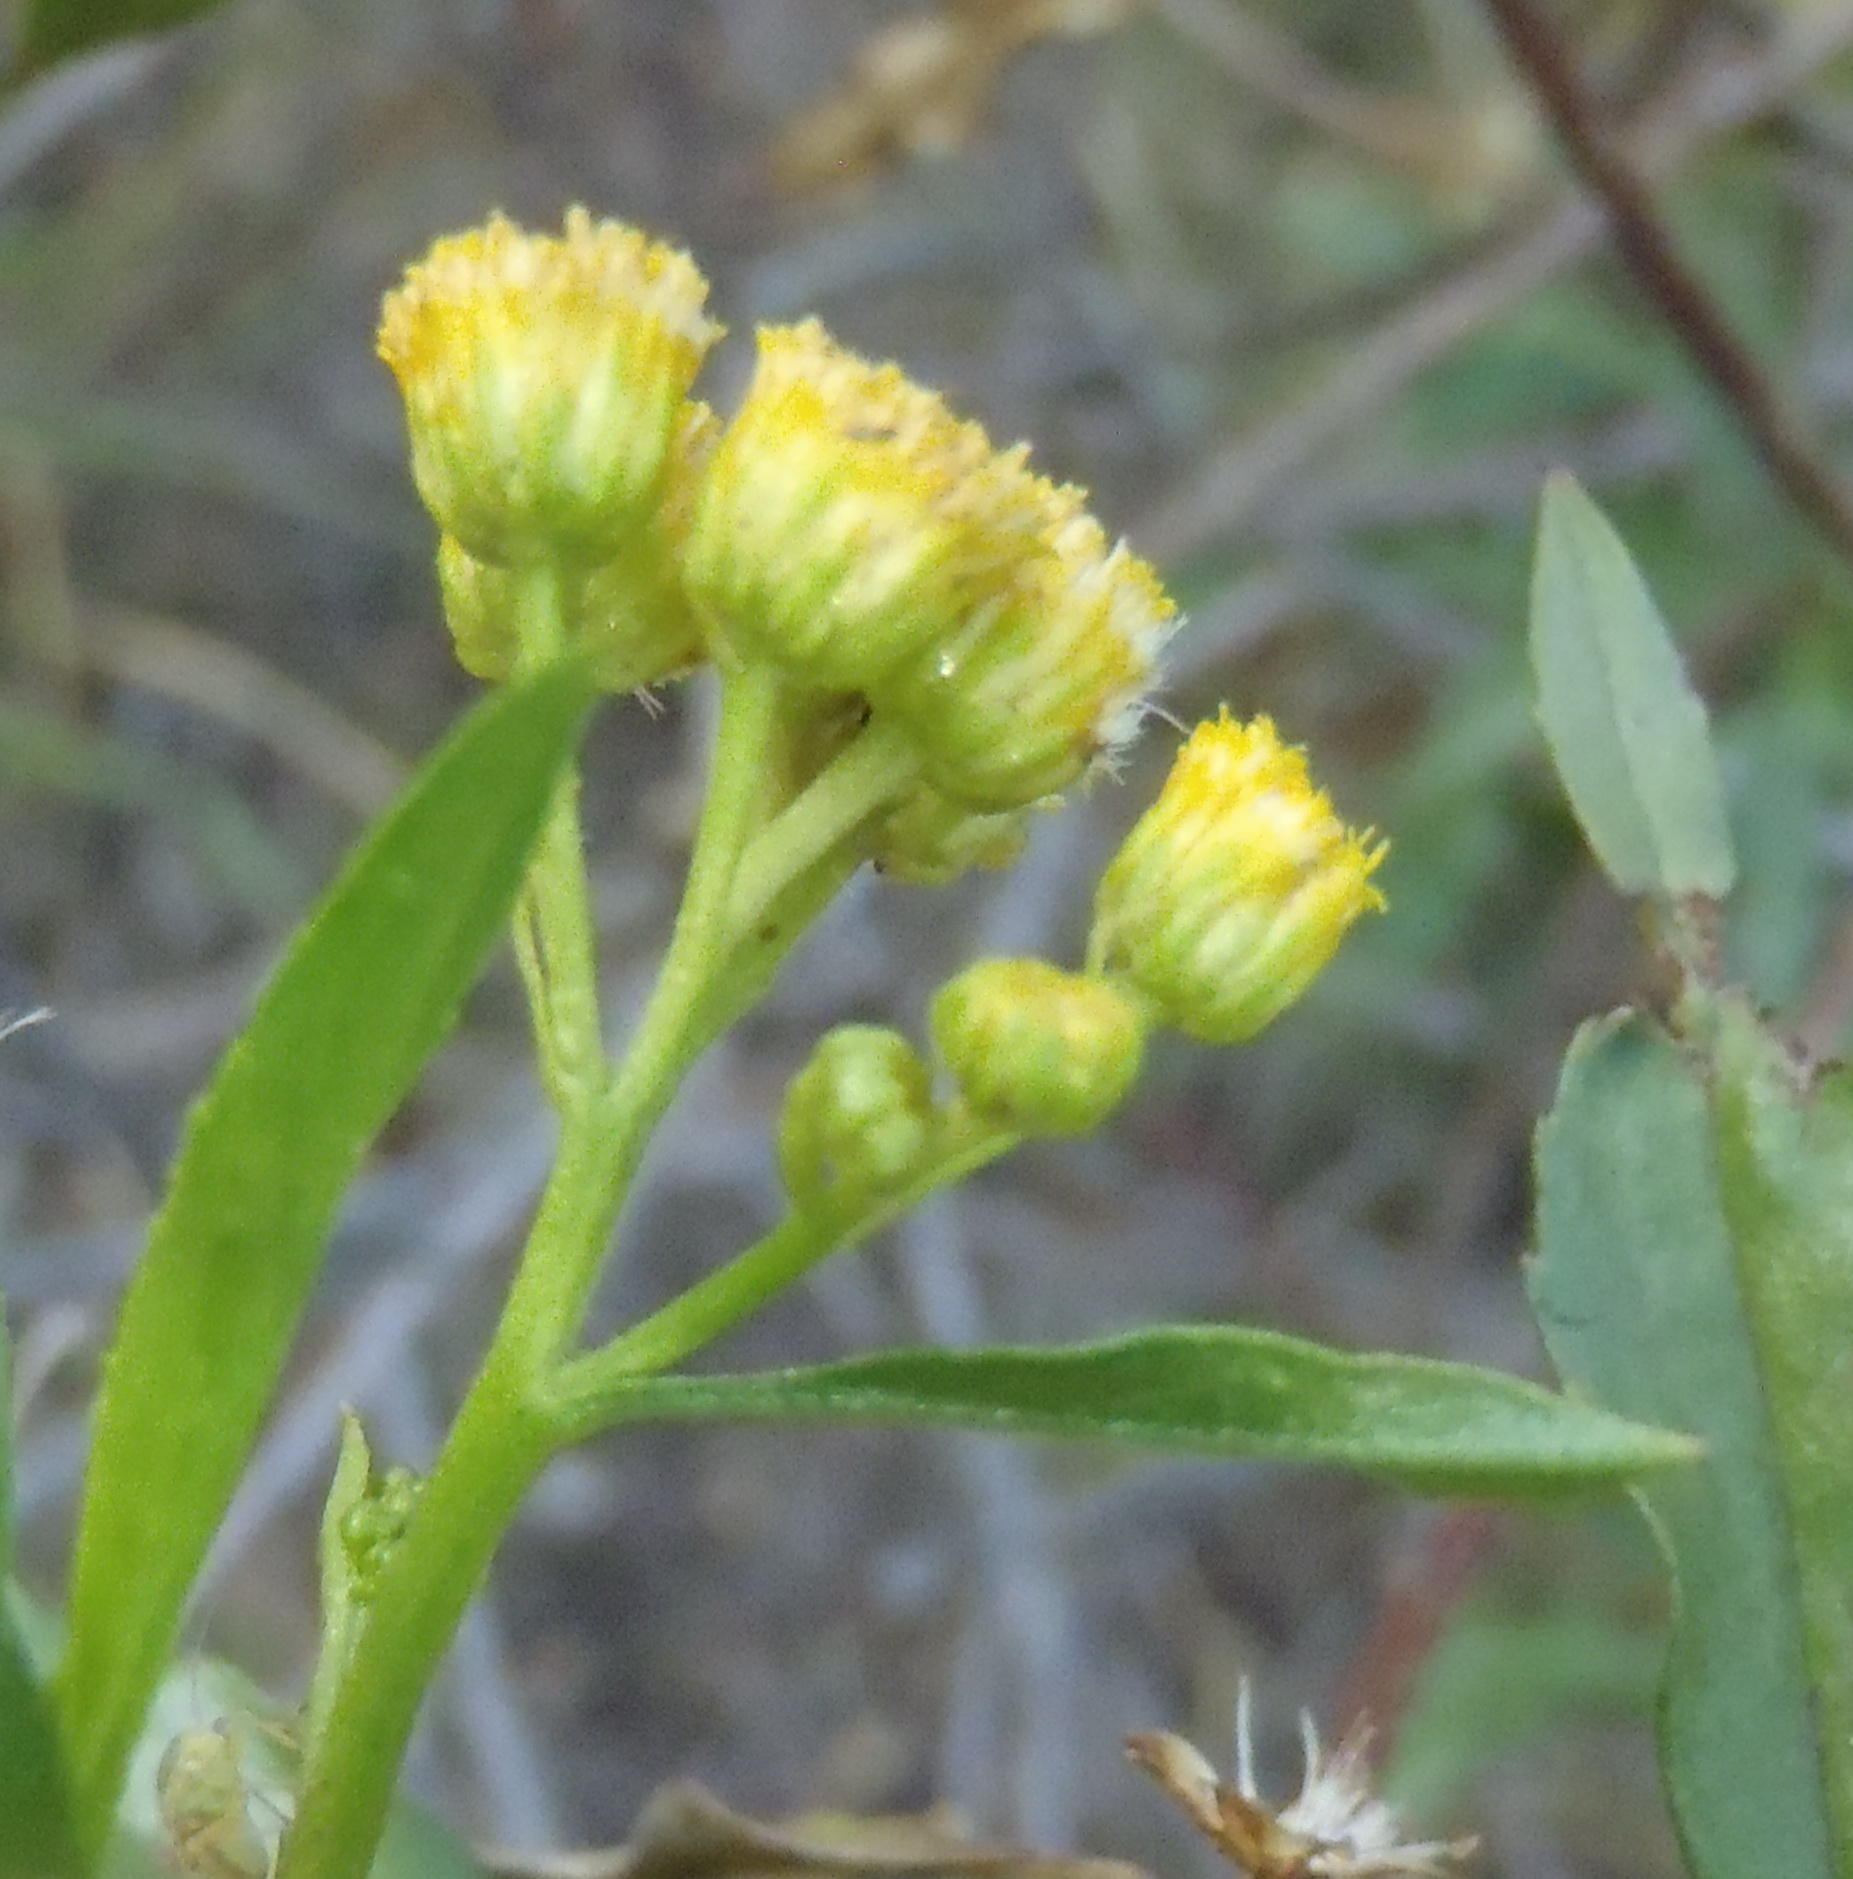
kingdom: Plantae
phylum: Tracheophyta
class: Magnoliopsida
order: Asterales
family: Asteraceae
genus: Psiadia
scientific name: Psiadia punctulata
